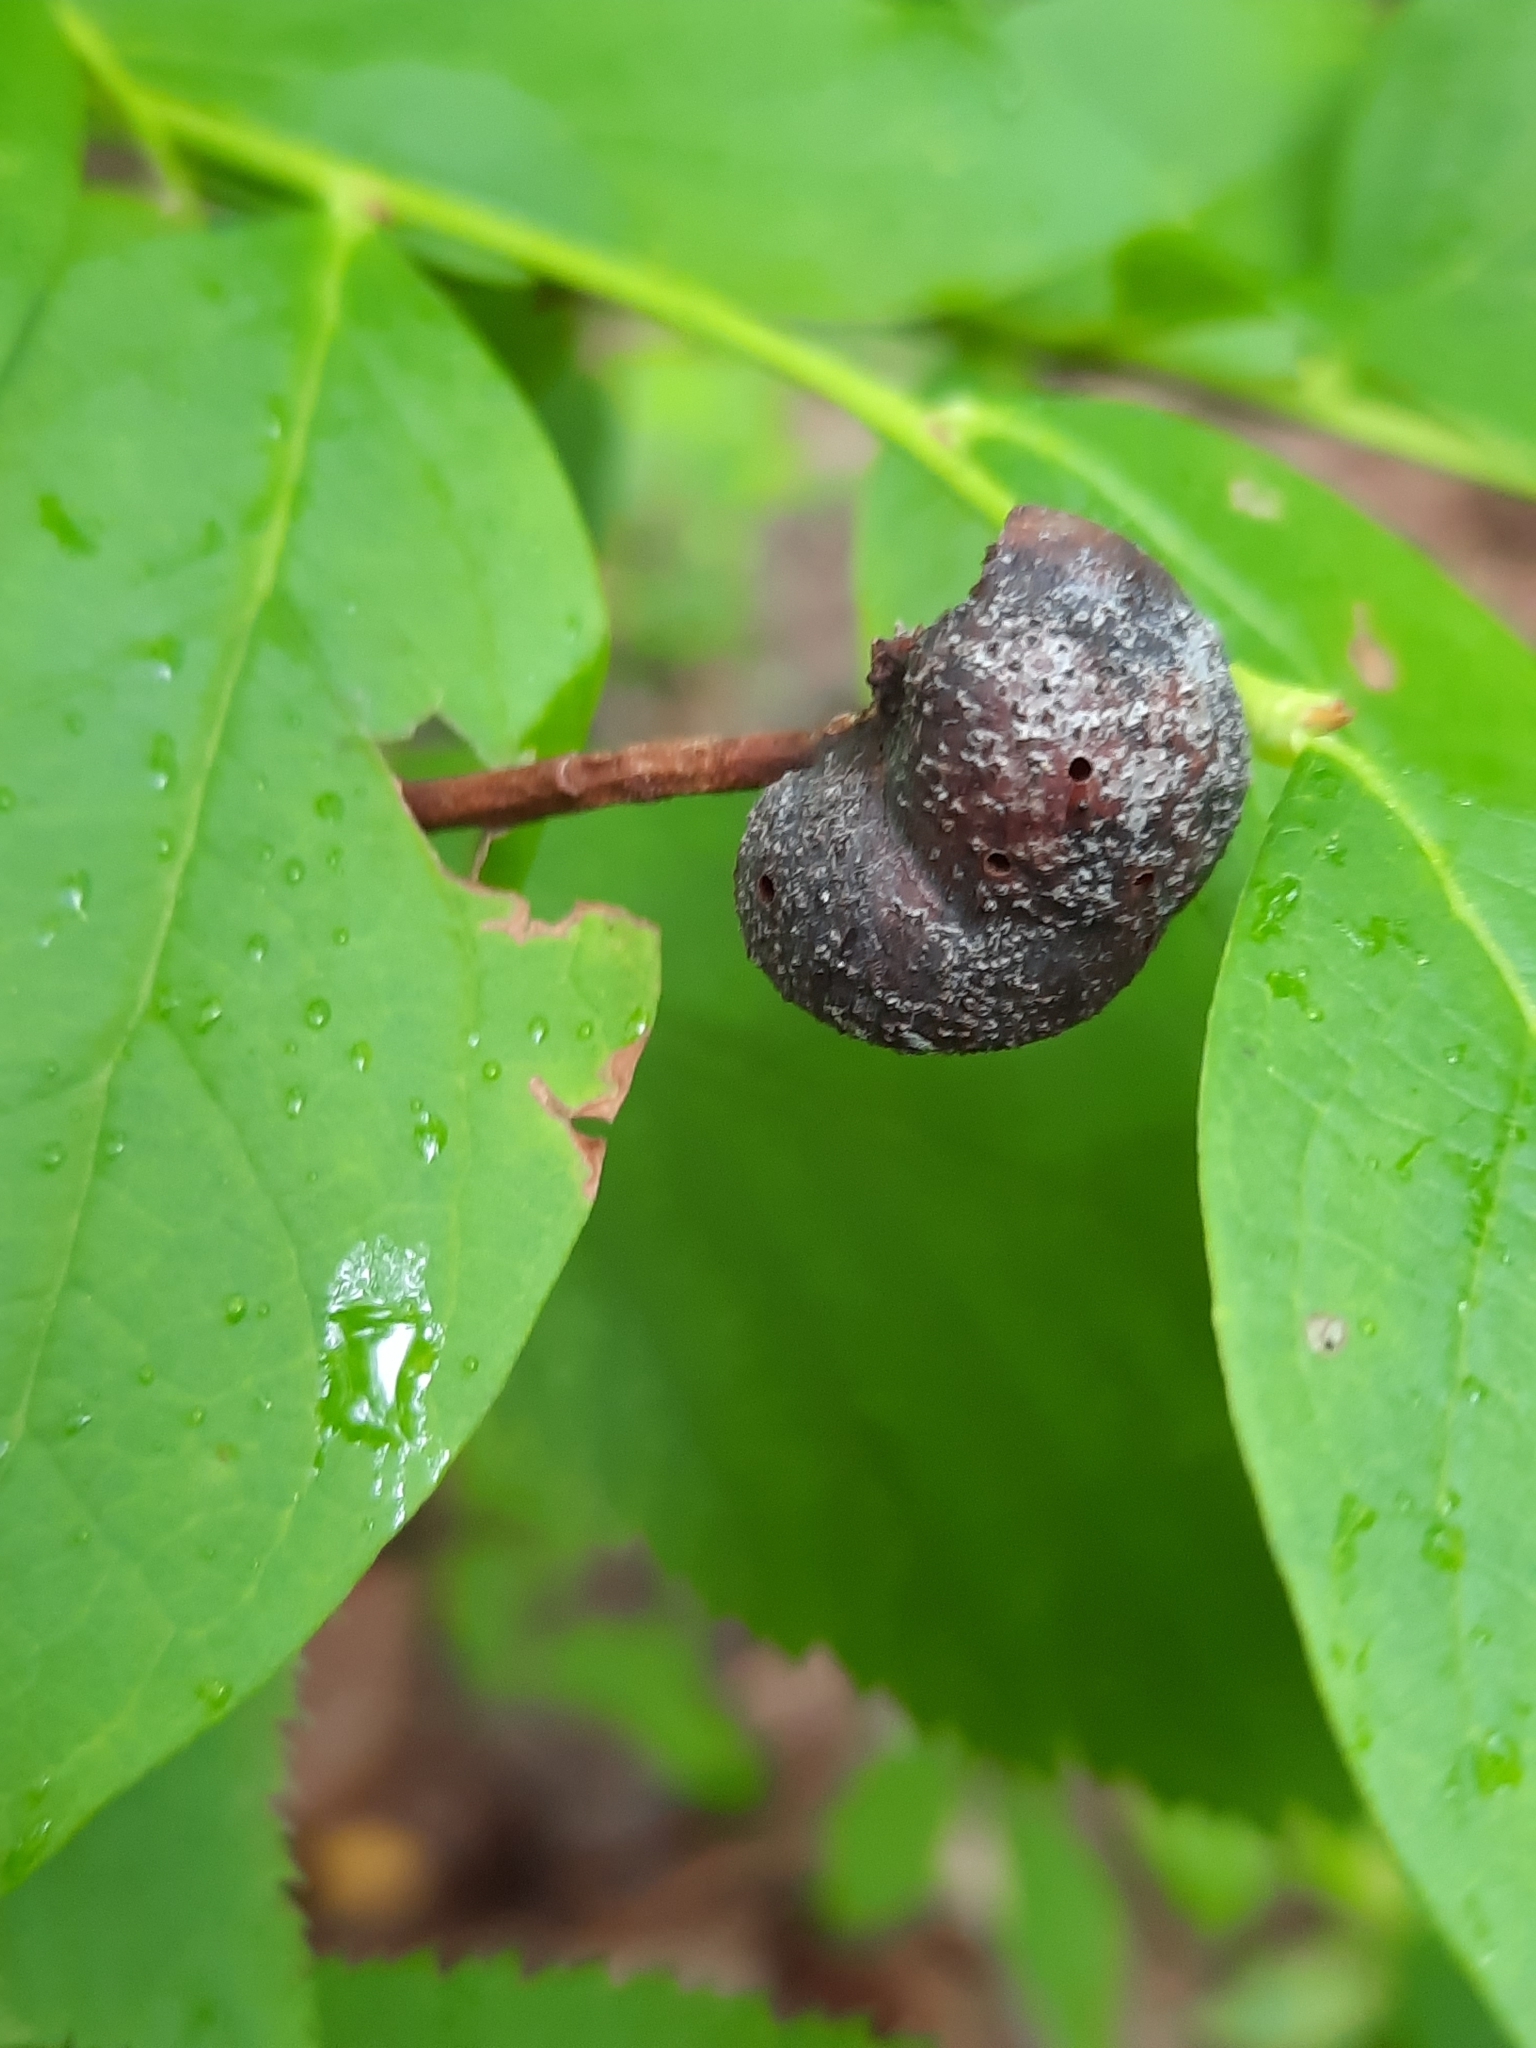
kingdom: Animalia
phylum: Arthropoda
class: Insecta
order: Hymenoptera
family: Pteromalidae
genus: Hemadas
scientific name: Hemadas nubilipennis
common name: Blueberry stem gall wasp
